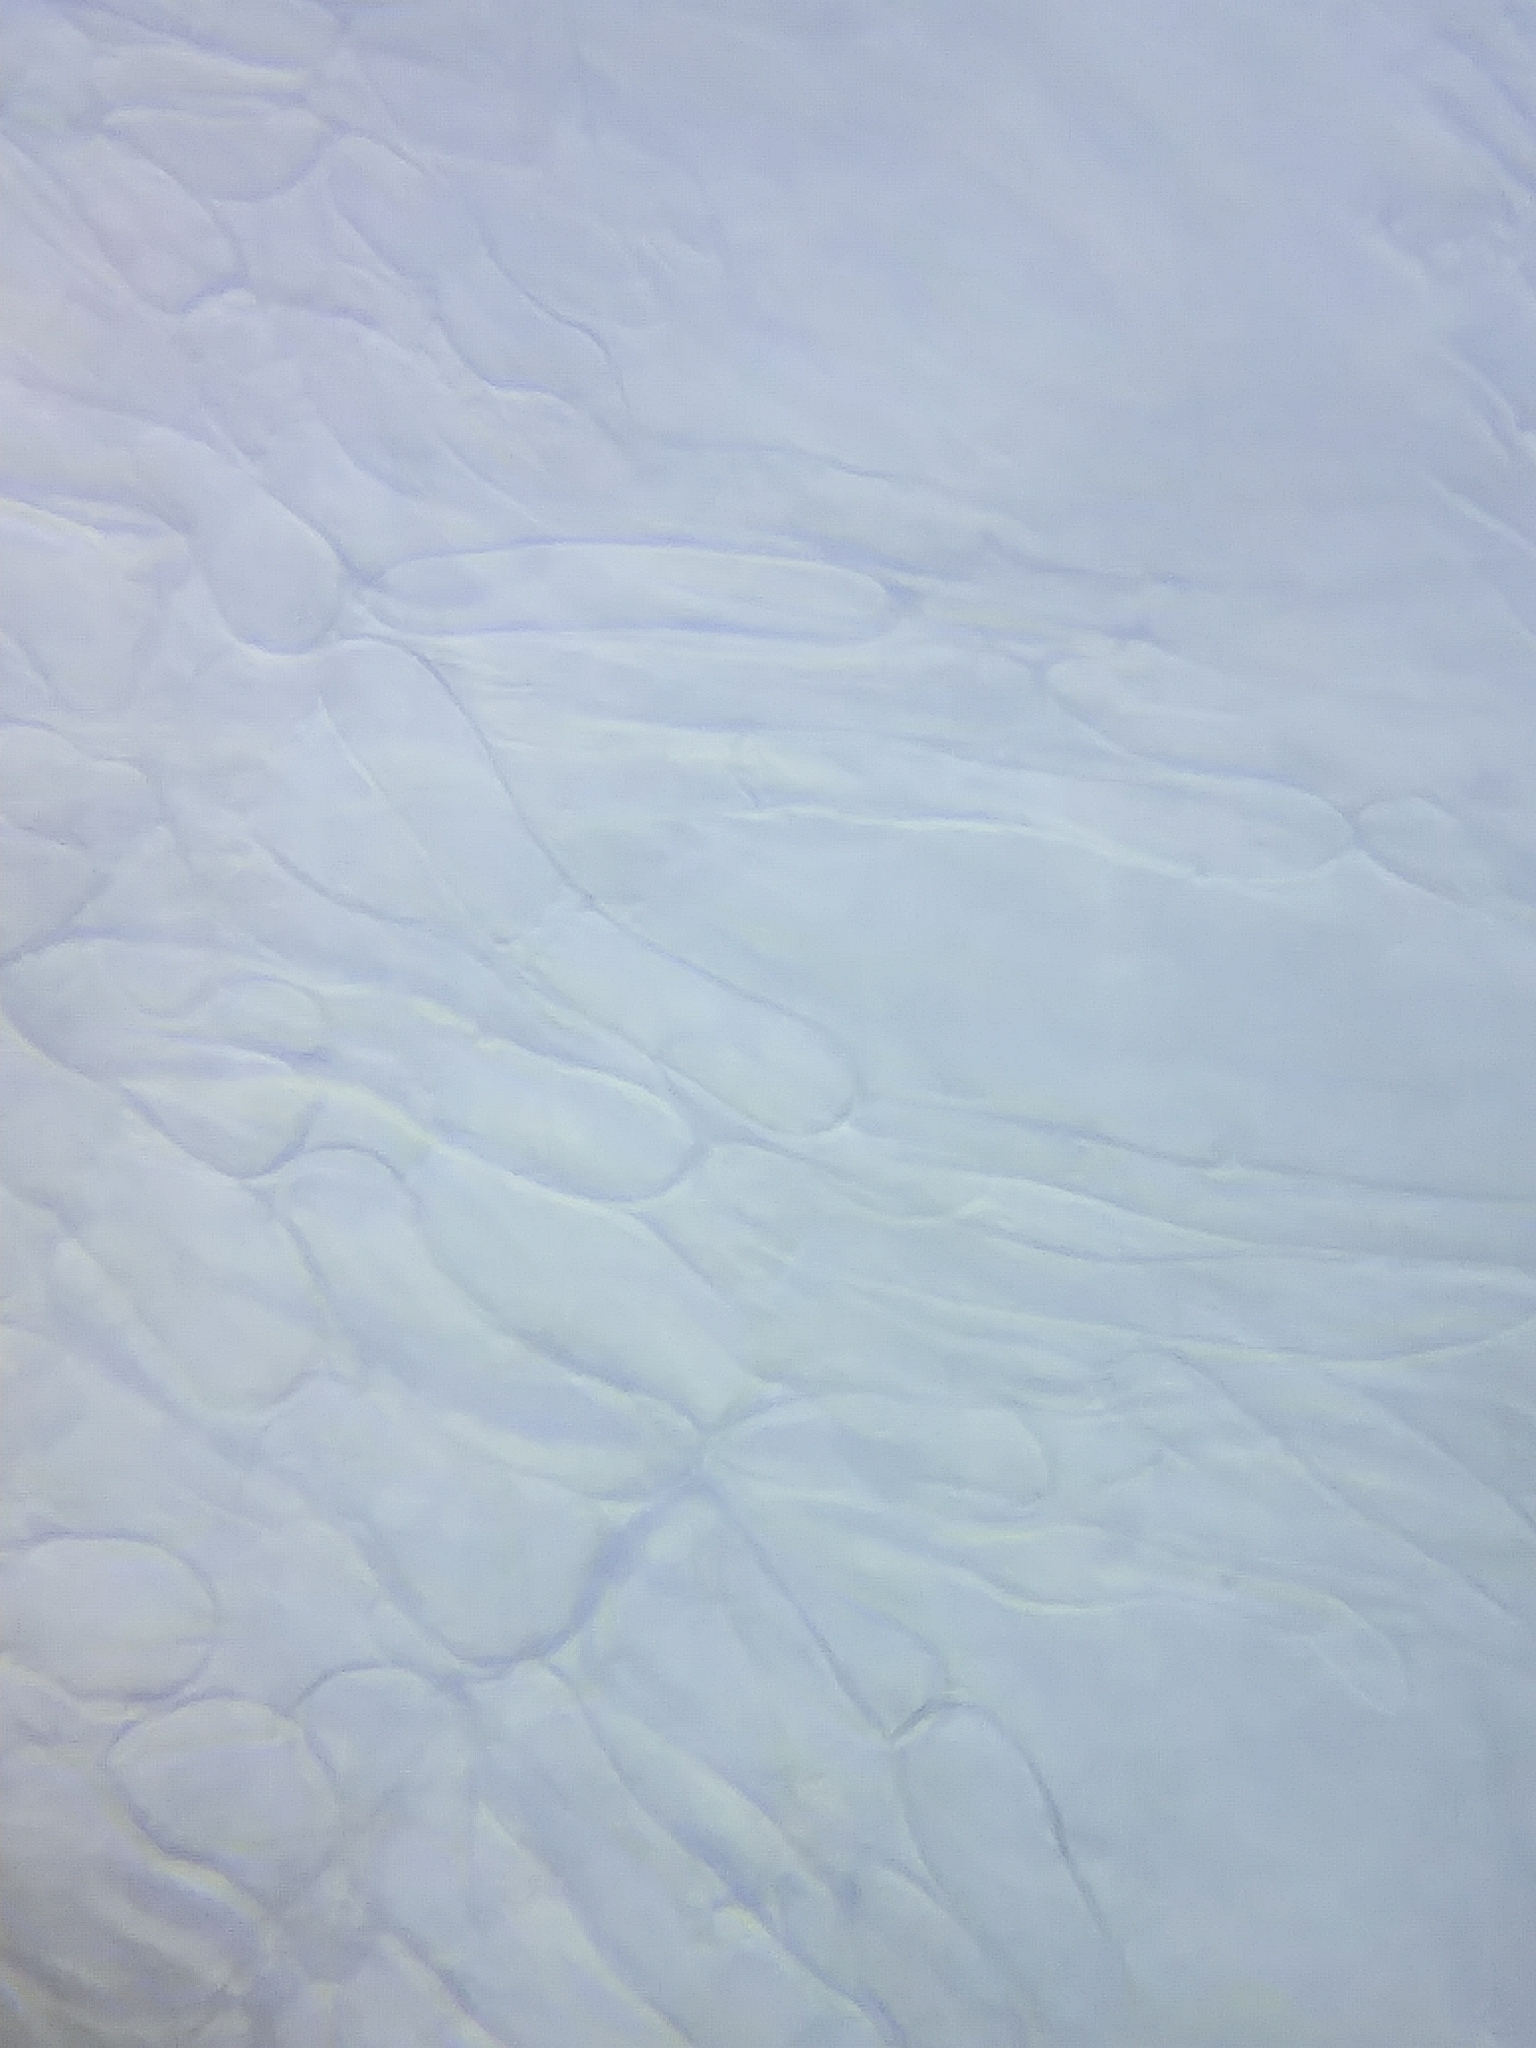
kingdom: Fungi
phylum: Ascomycota
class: Pezizomycetes
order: Pezizales
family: Sarcoscyphaceae
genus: Sarcoscypha
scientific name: Sarcoscypha austriaca
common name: Scarlet elfcup
